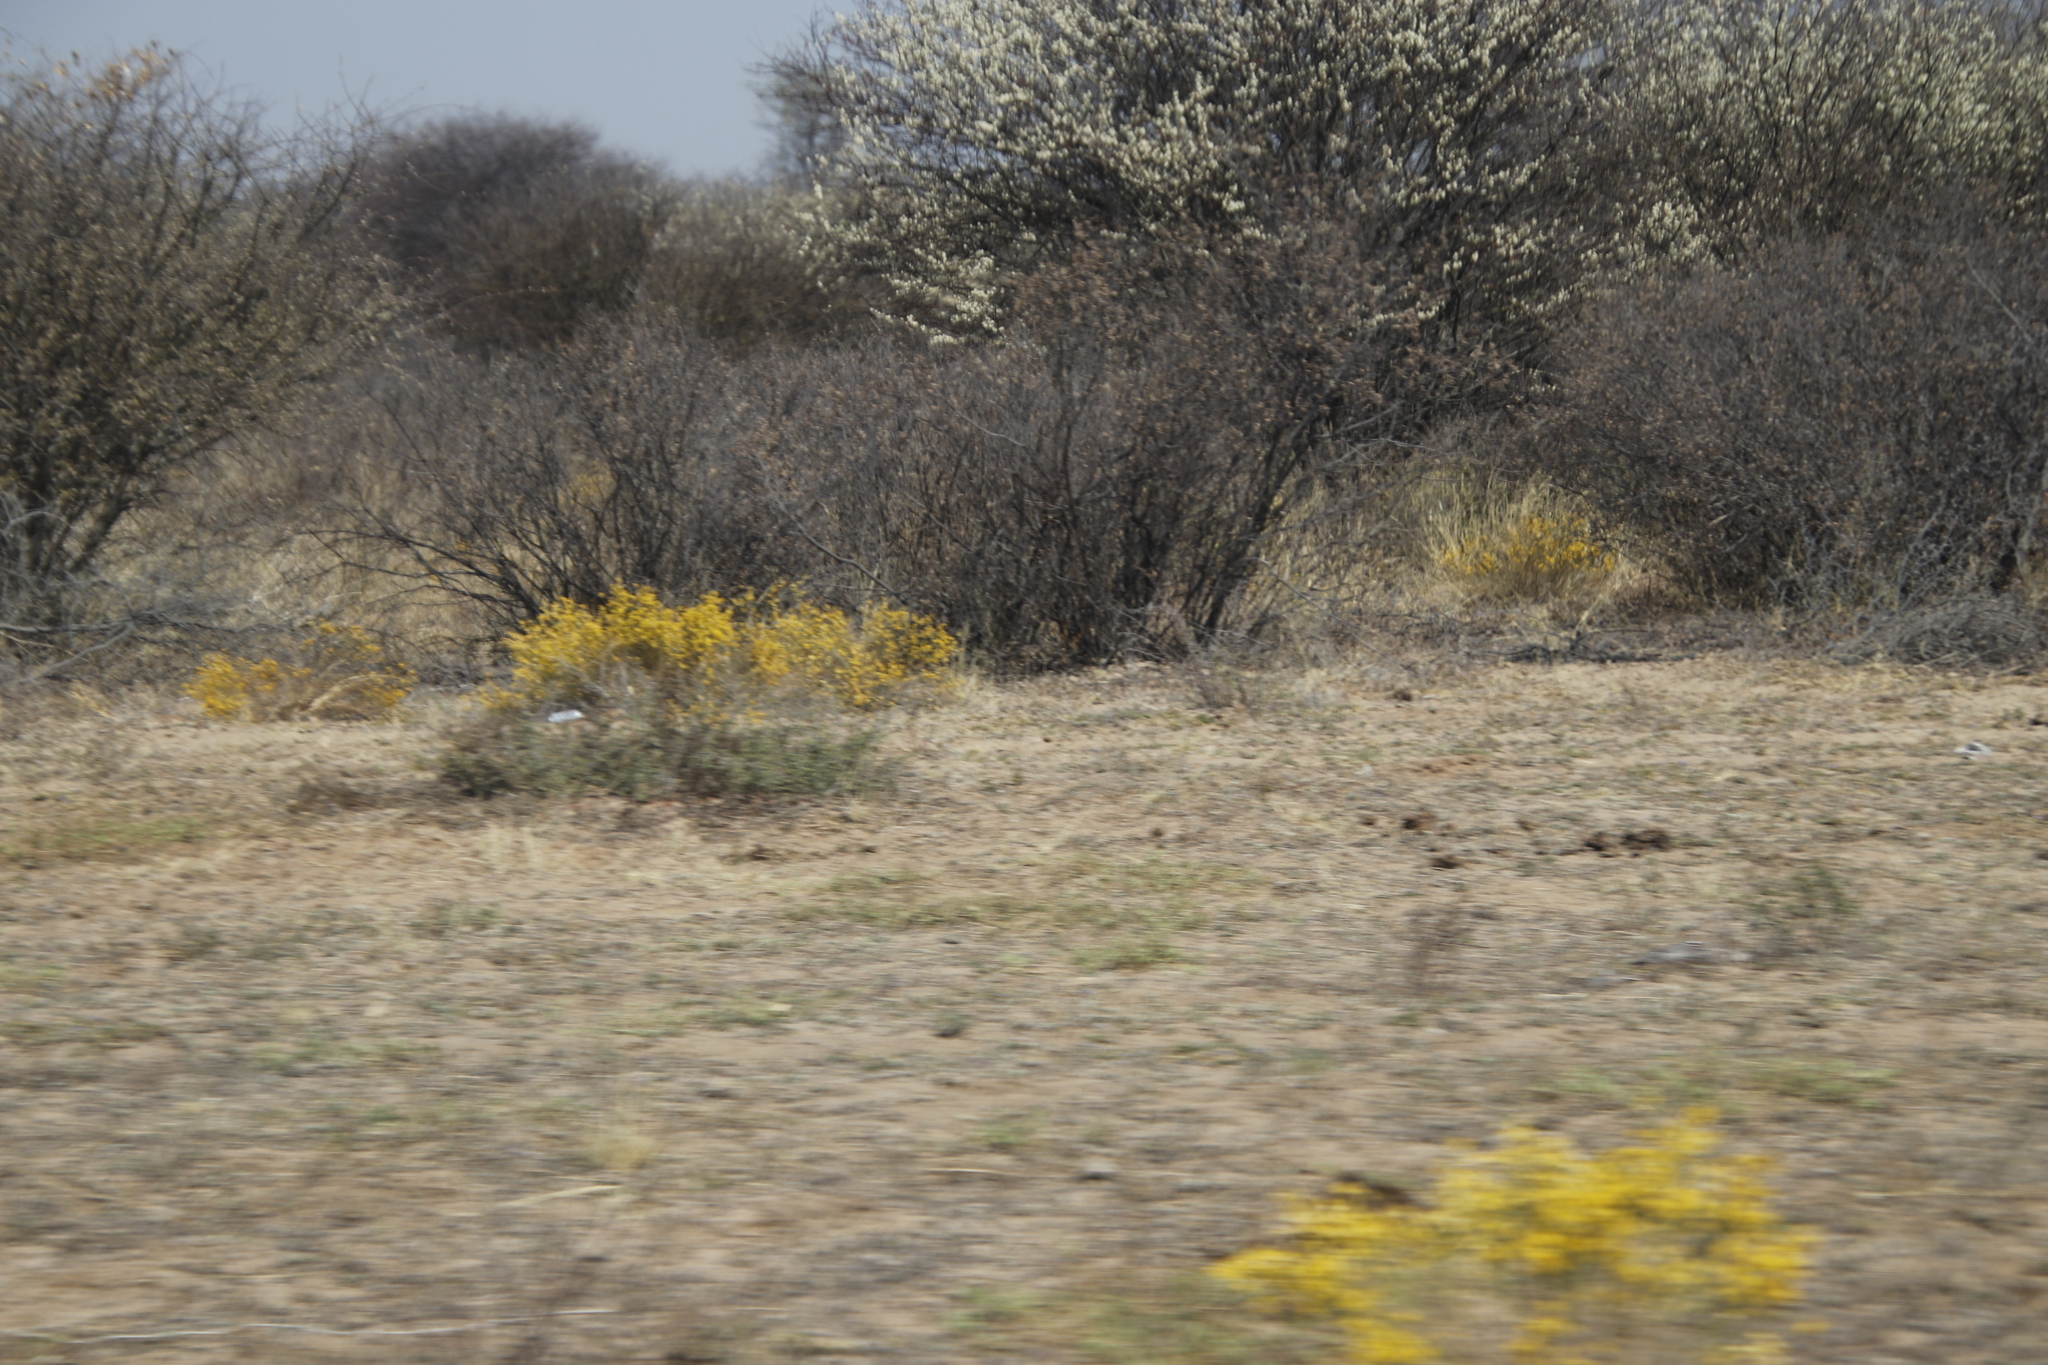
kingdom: Plantae
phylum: Tracheophyta
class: Magnoliopsida
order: Malvales
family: Thymelaeaceae
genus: Gnidia
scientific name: Gnidia polycephala
